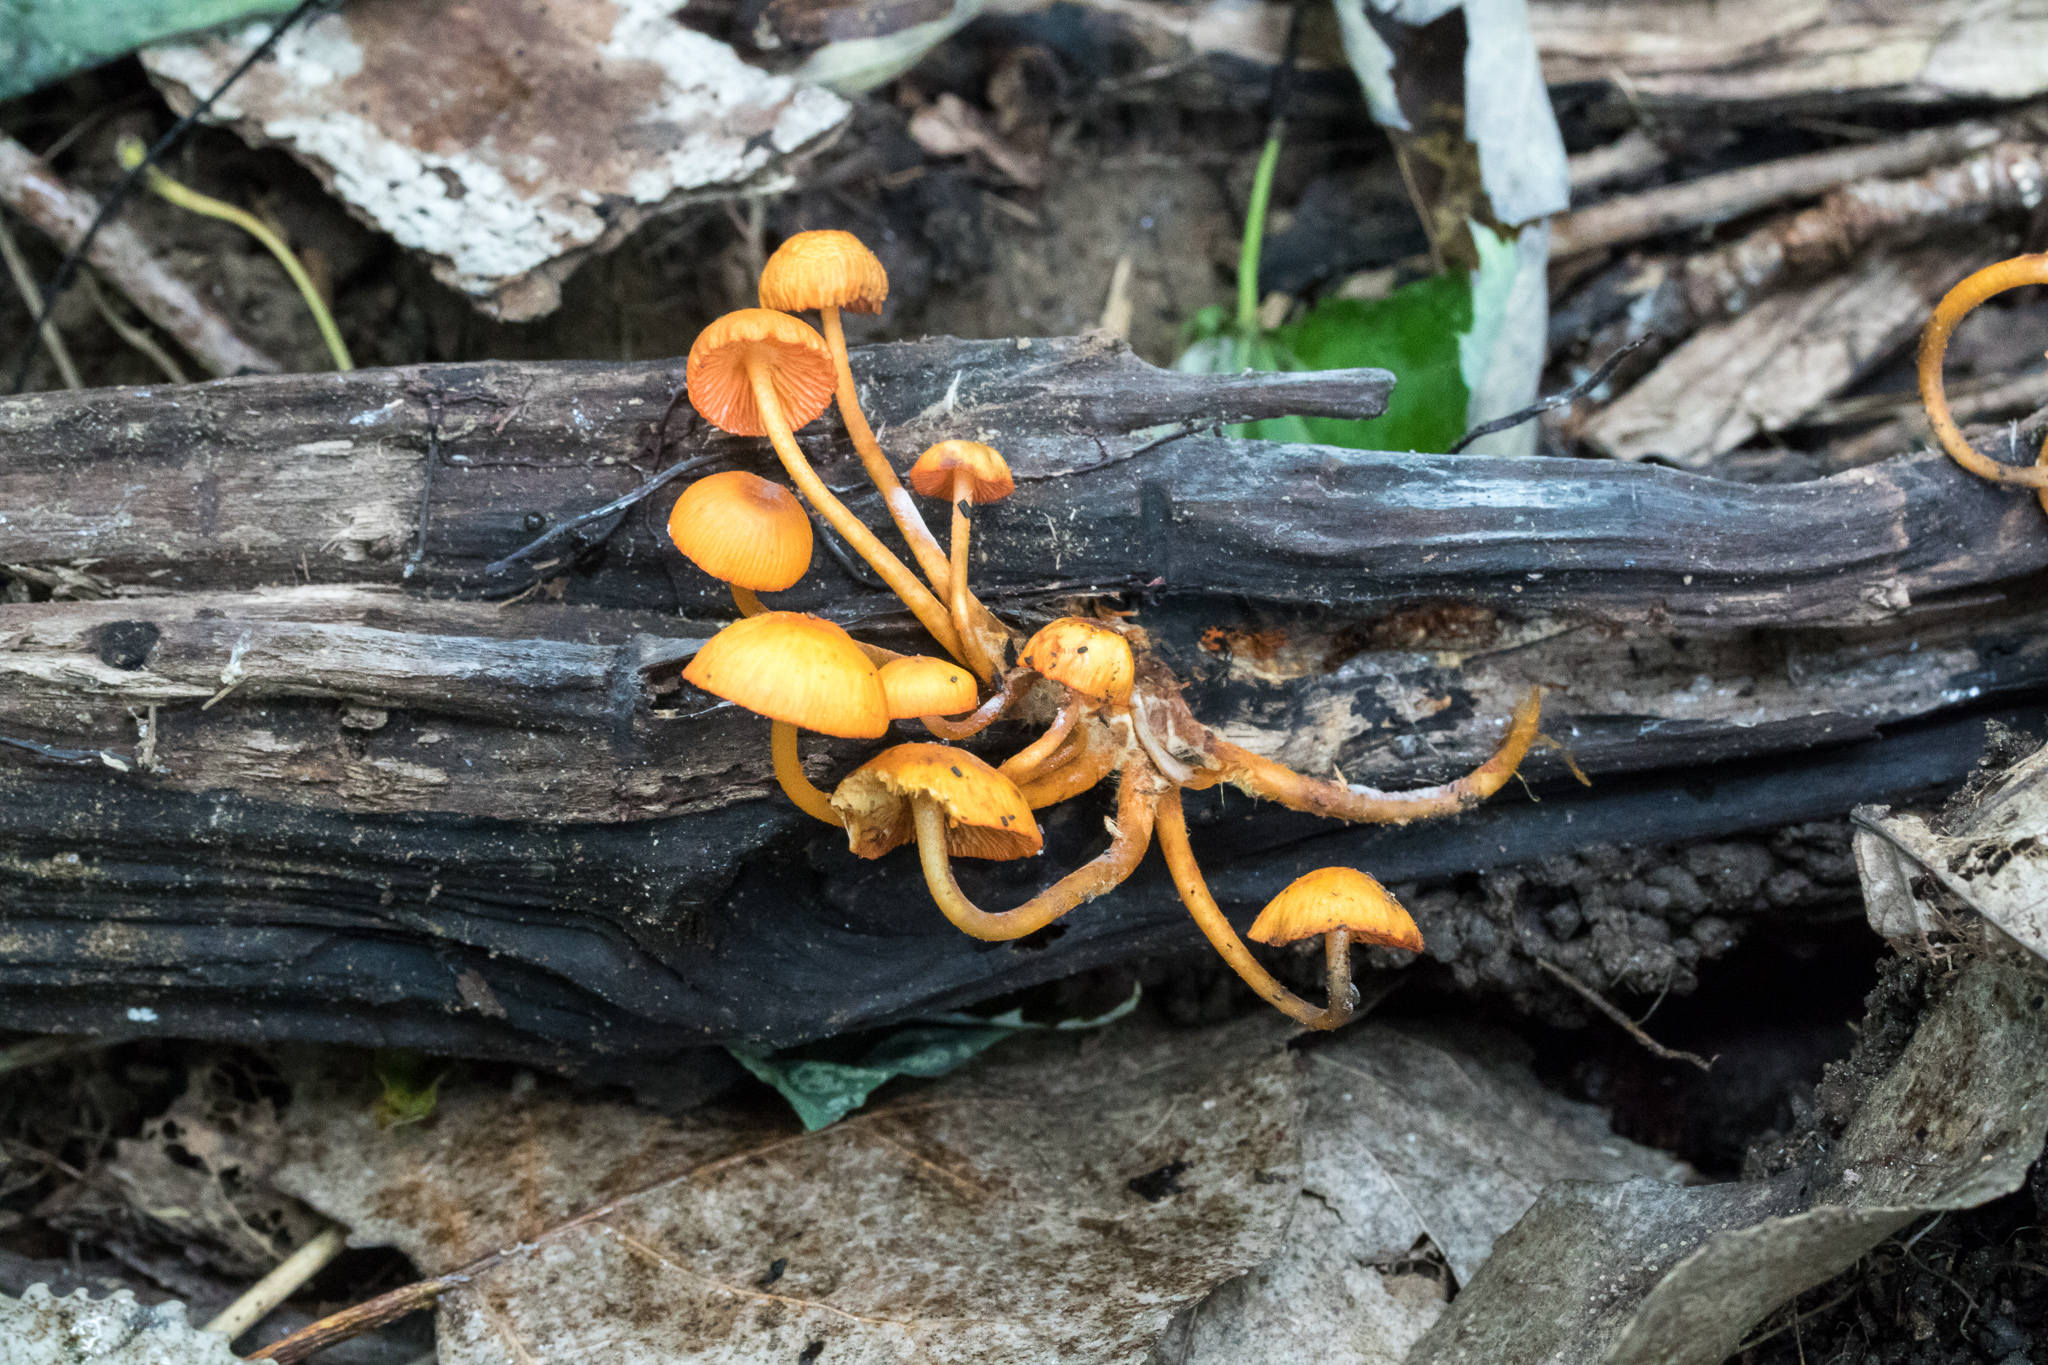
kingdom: Fungi
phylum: Basidiomycota
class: Agaricomycetes
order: Agaricales
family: Mycenaceae
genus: Mycena
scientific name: Mycena leaiana
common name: Orange mycena
